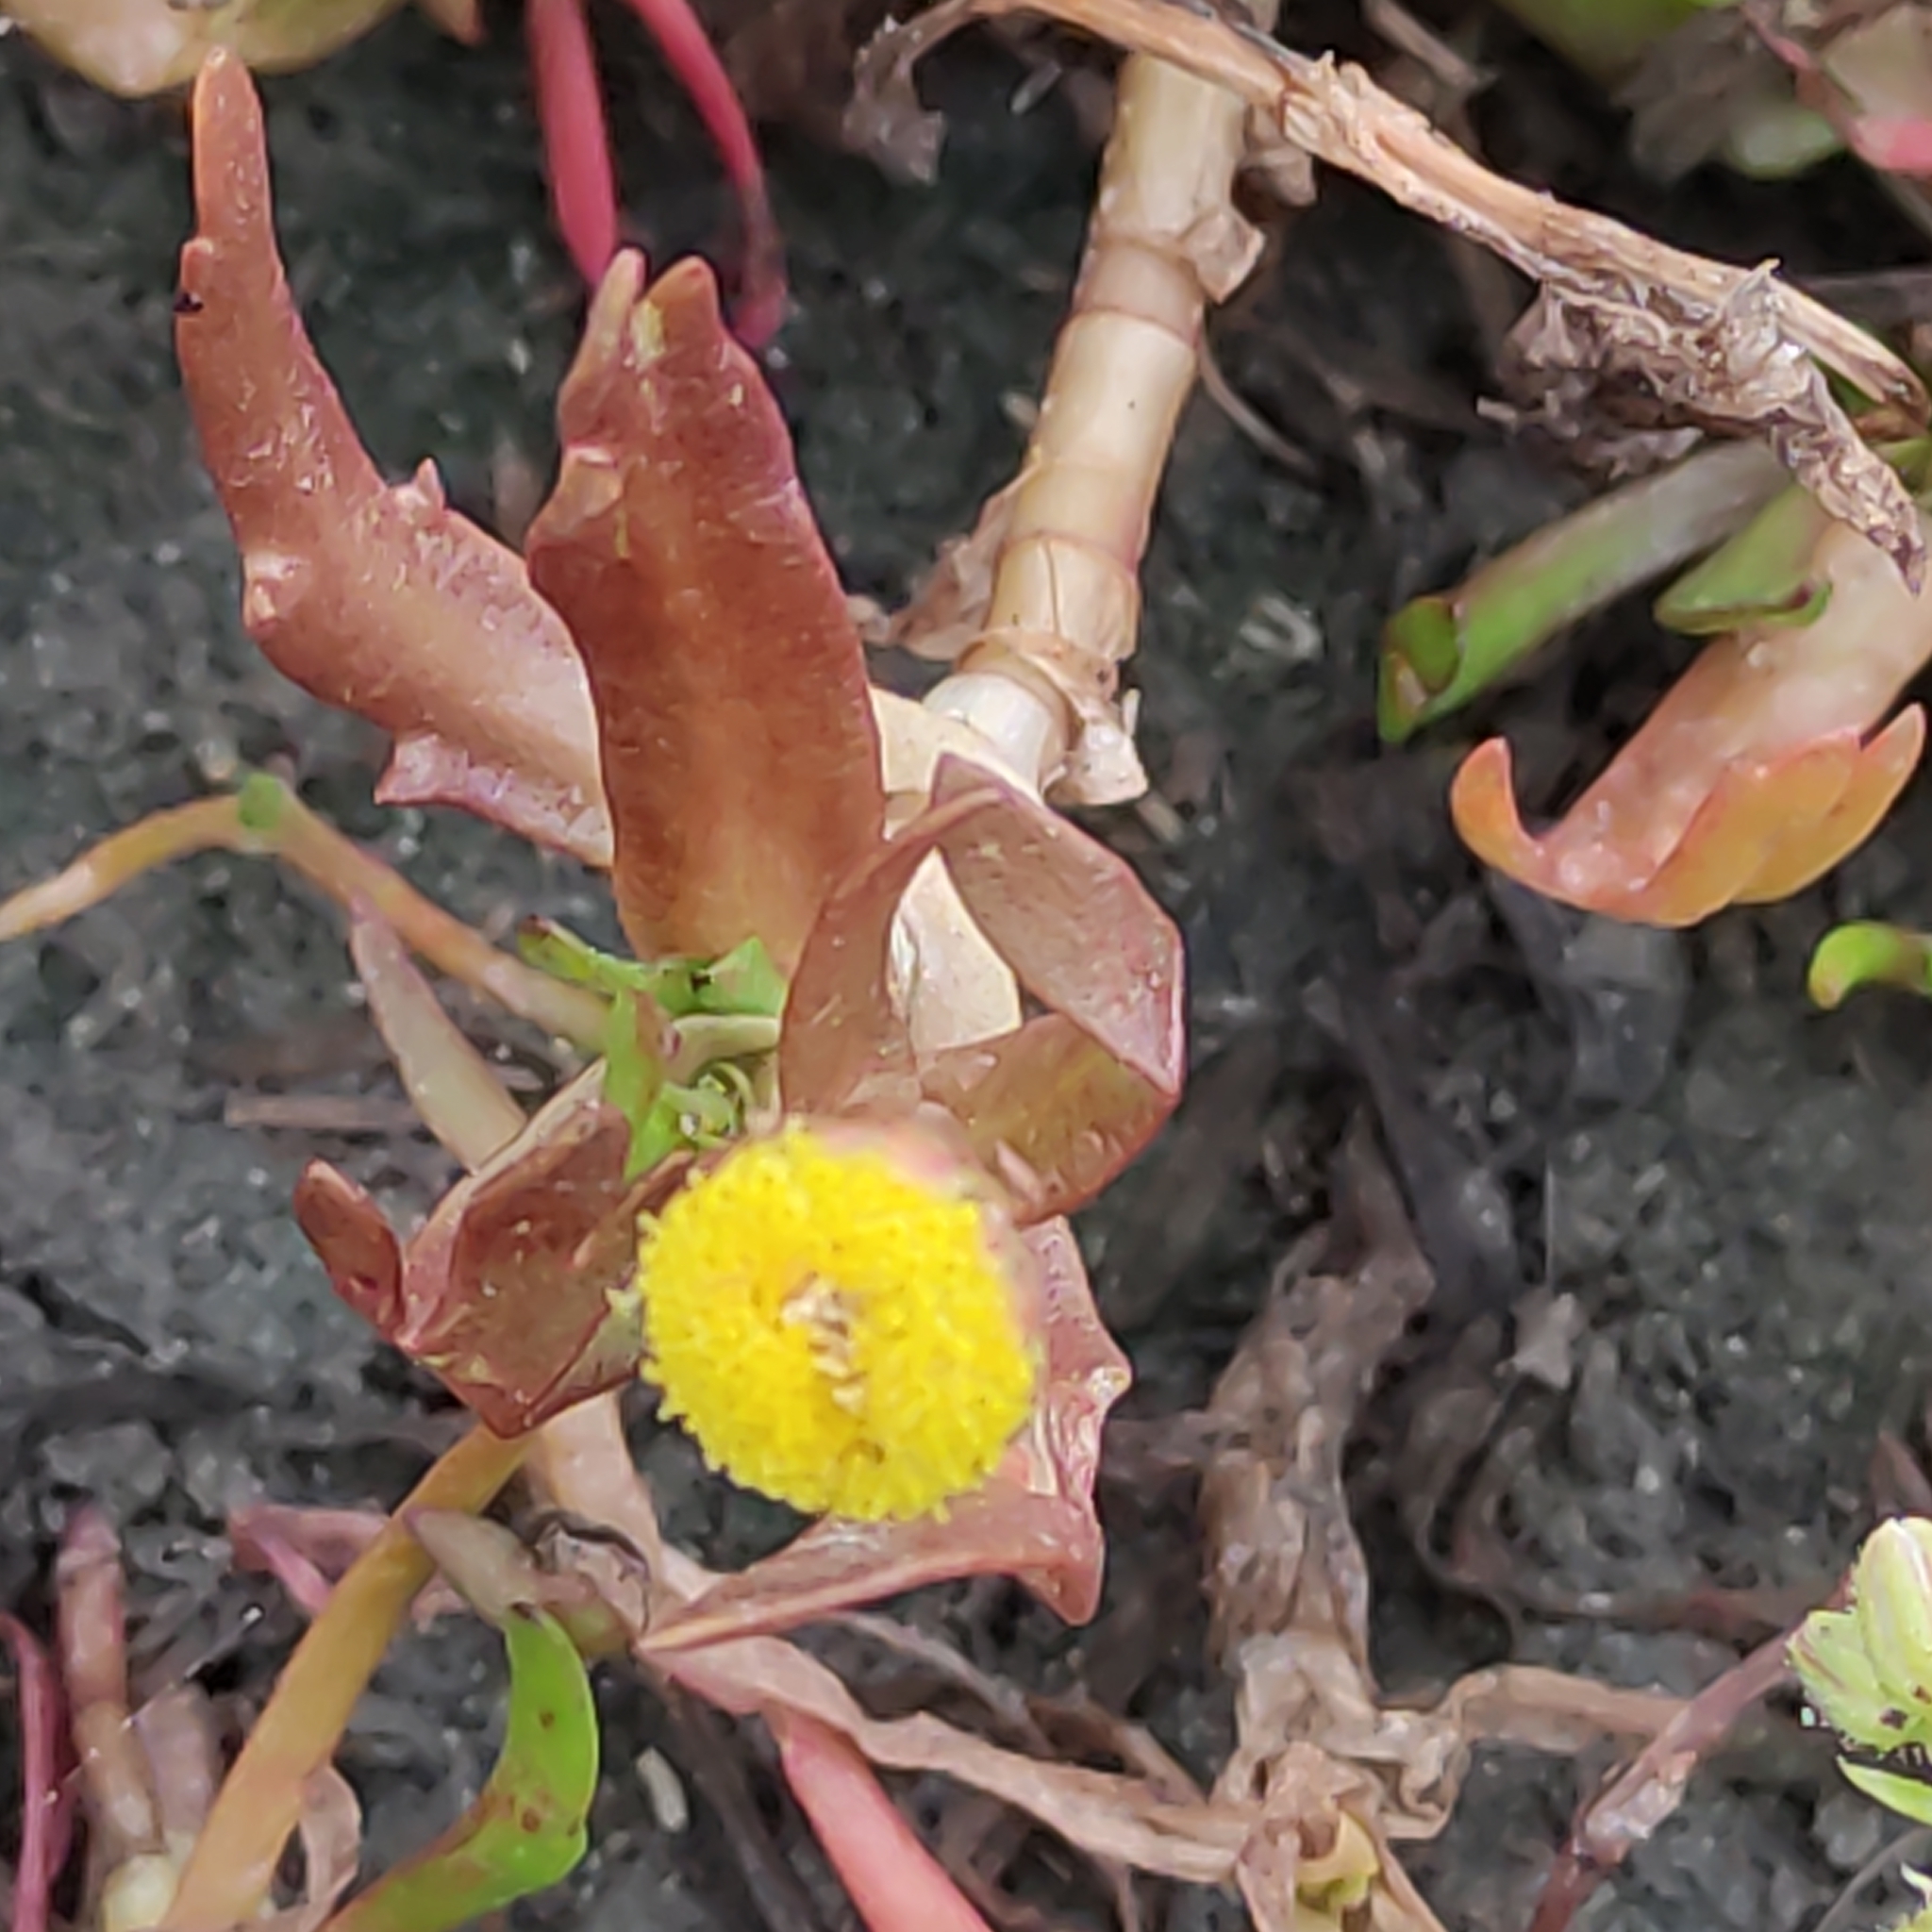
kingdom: Plantae
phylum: Tracheophyta
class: Magnoliopsida
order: Asterales
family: Asteraceae
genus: Cotula
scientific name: Cotula coronopifolia
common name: Buttonweed
